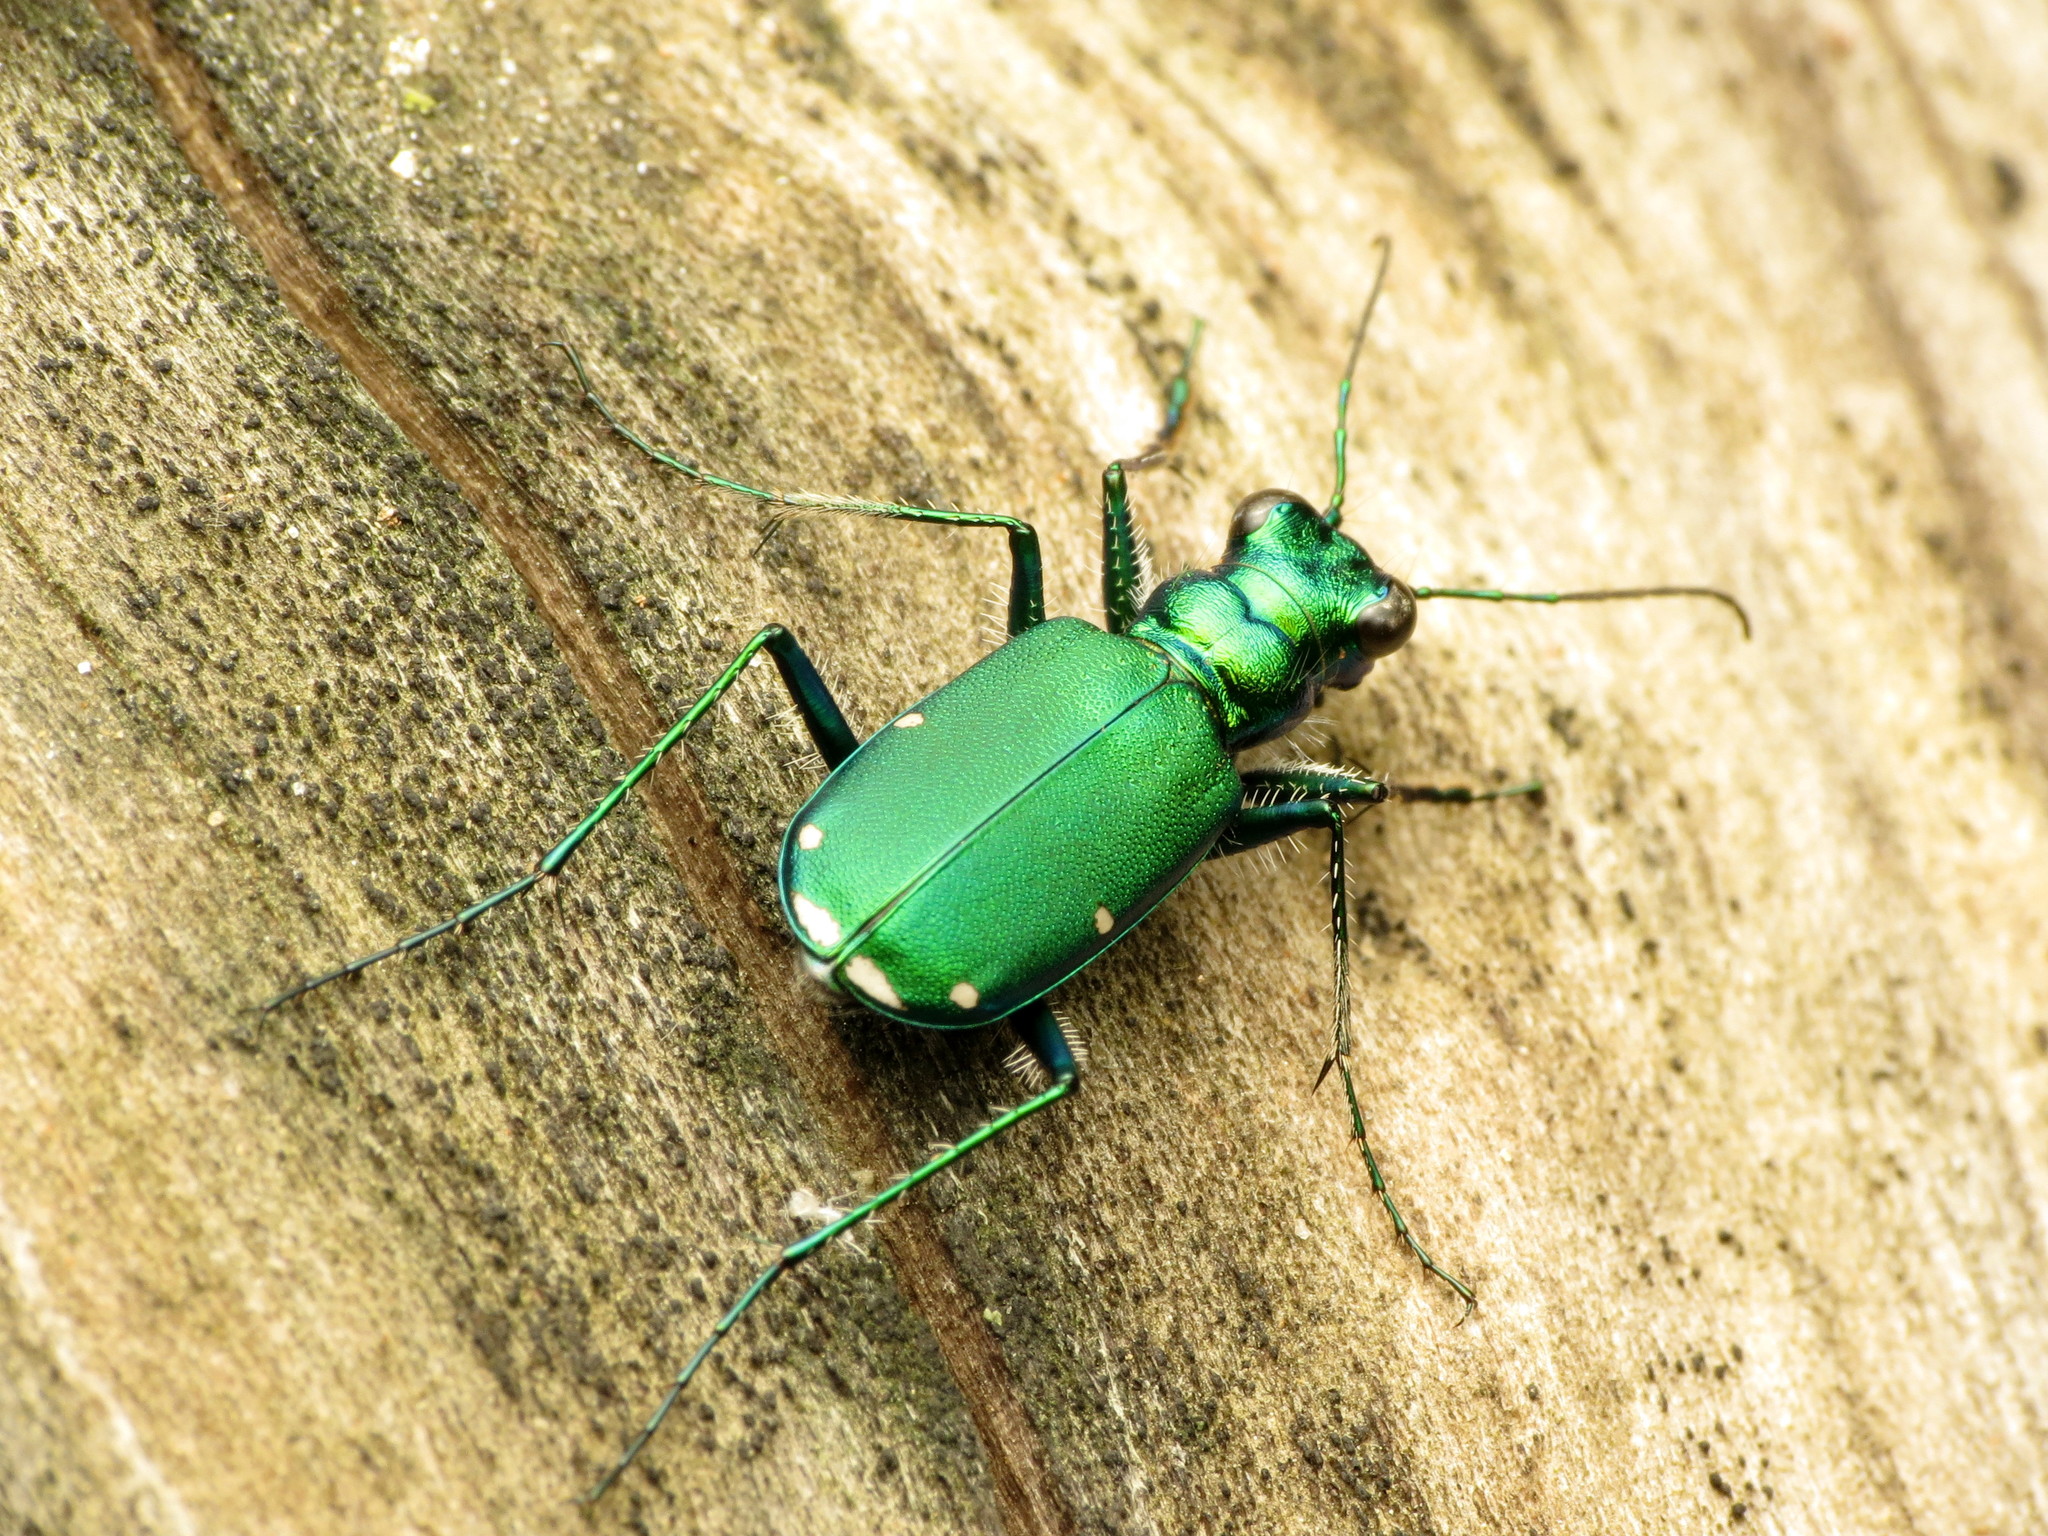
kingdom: Animalia
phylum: Arthropoda
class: Insecta
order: Coleoptera
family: Carabidae
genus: Cicindela
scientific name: Cicindela sexguttata
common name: Six-spotted tiger beetle
